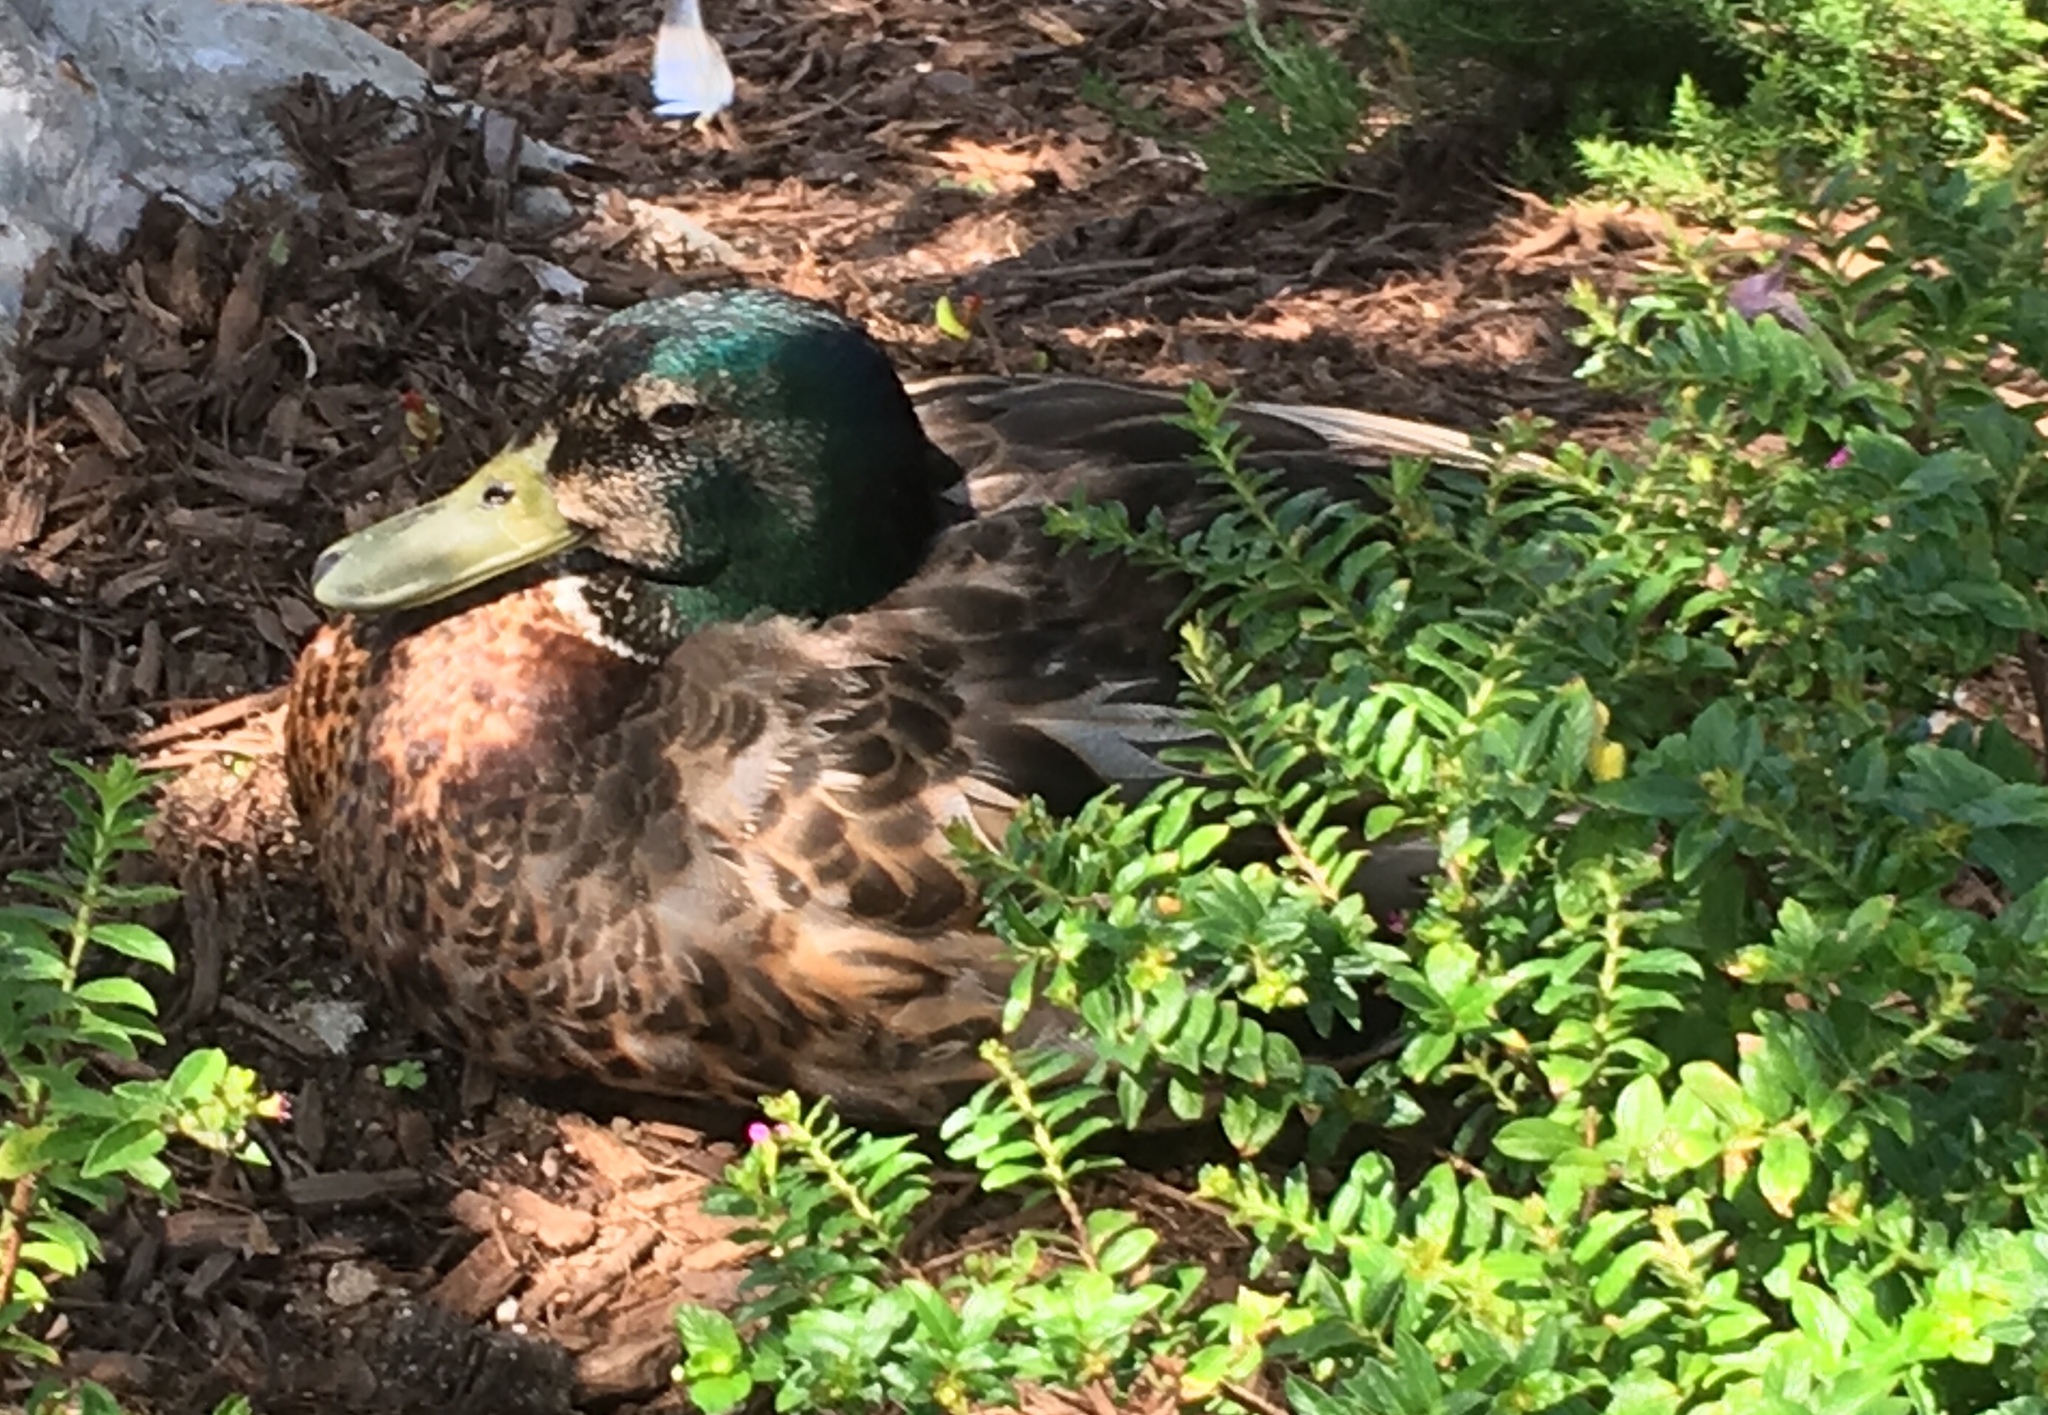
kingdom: Animalia
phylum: Chordata
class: Aves
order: Anseriformes
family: Anatidae
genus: Anas
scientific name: Anas platyrhynchos
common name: Mallard
